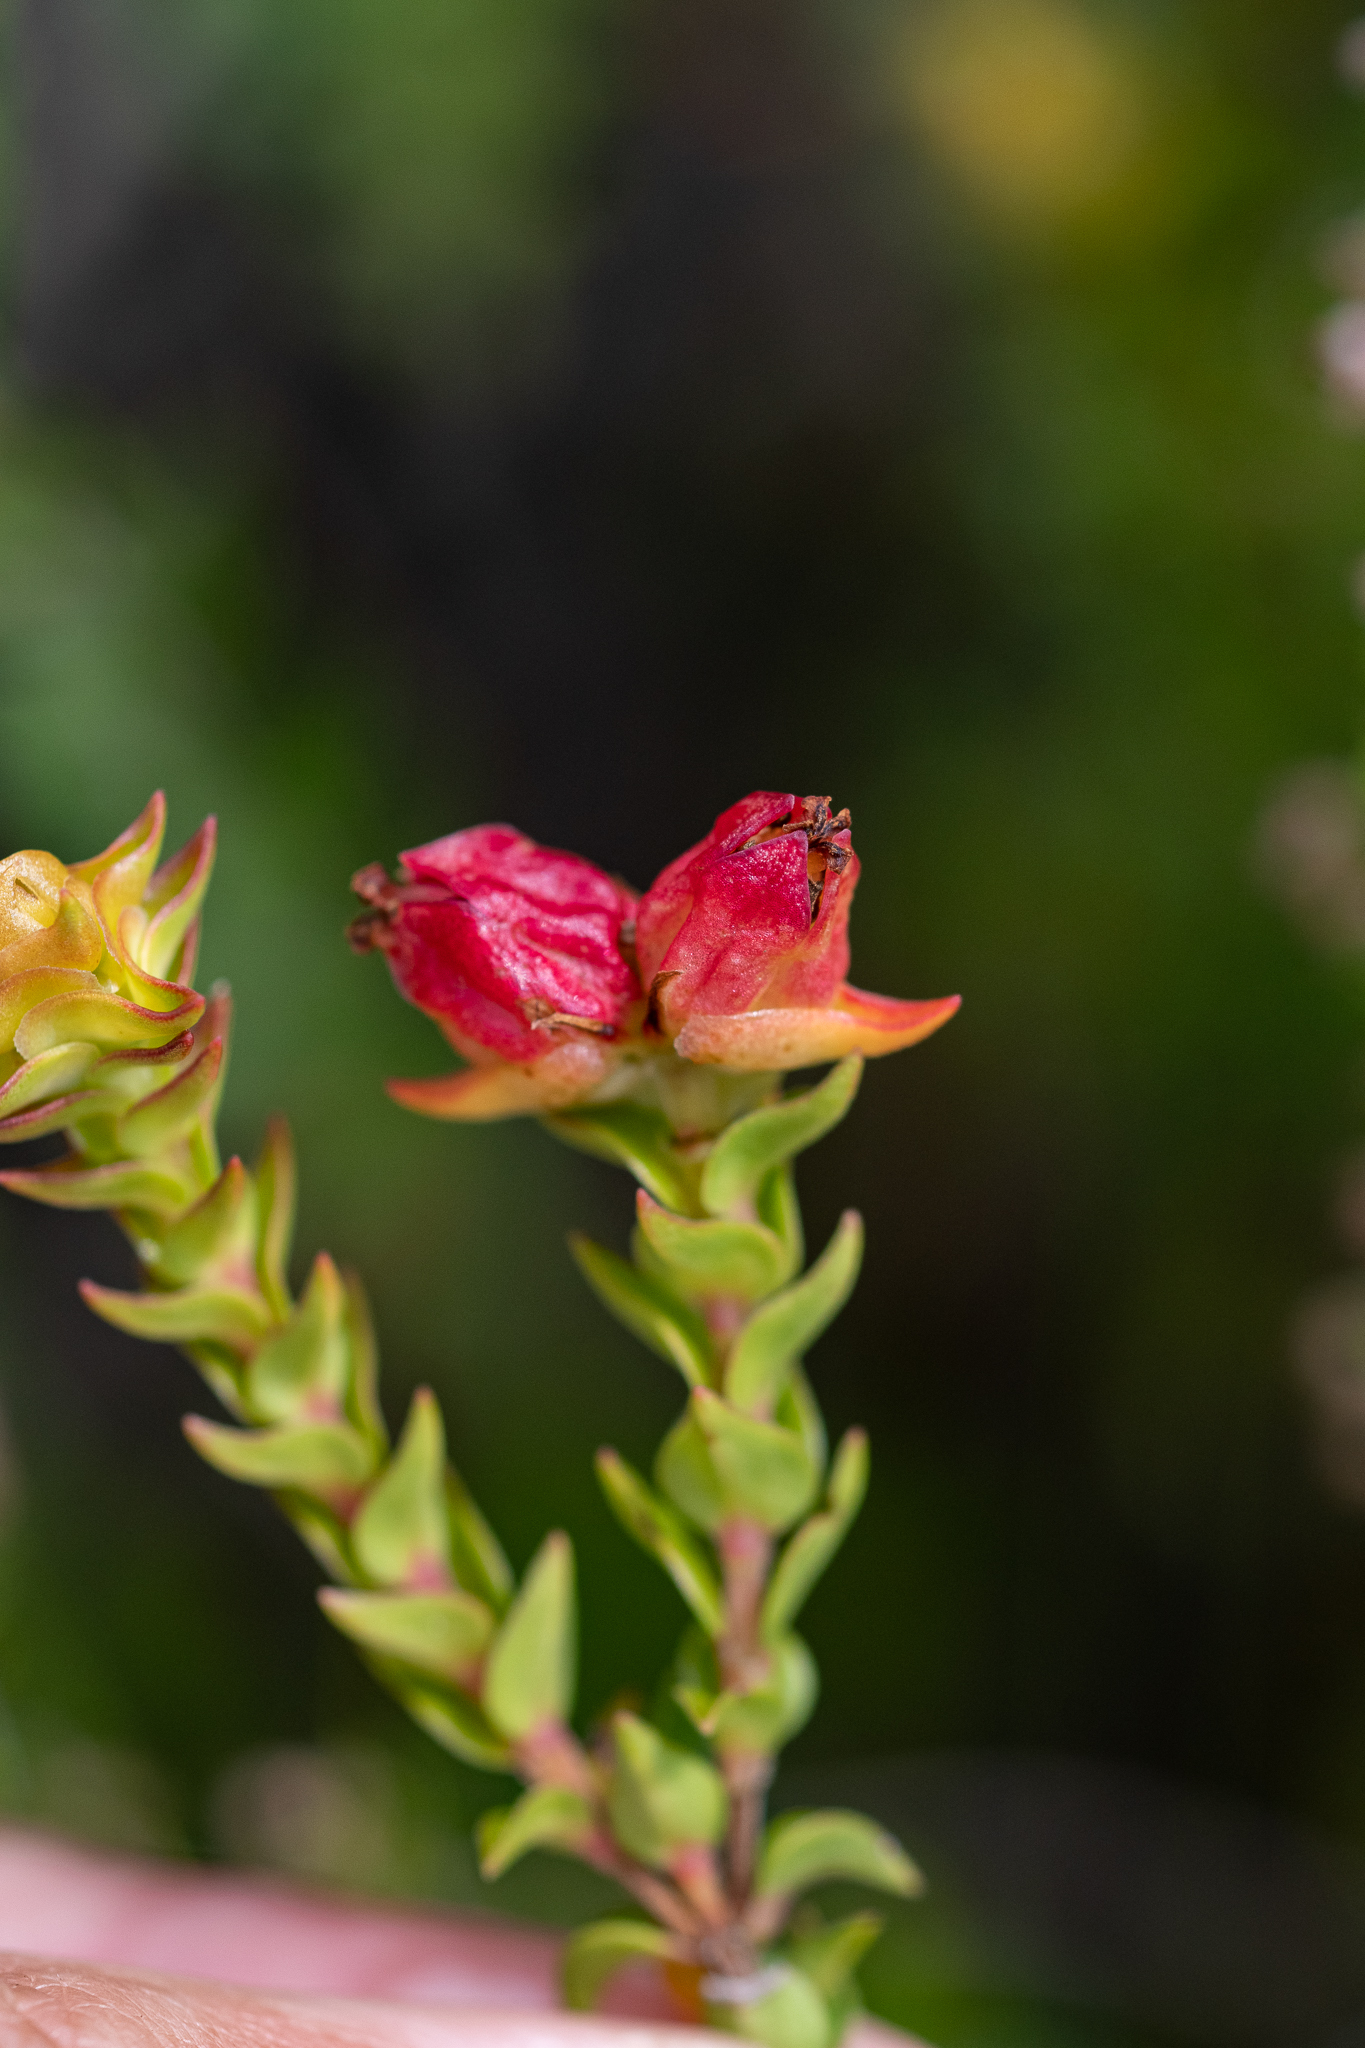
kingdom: Plantae
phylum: Tracheophyta
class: Magnoliopsida
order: Myrtales
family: Penaeaceae
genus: Penaea
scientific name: Penaea mucronata
